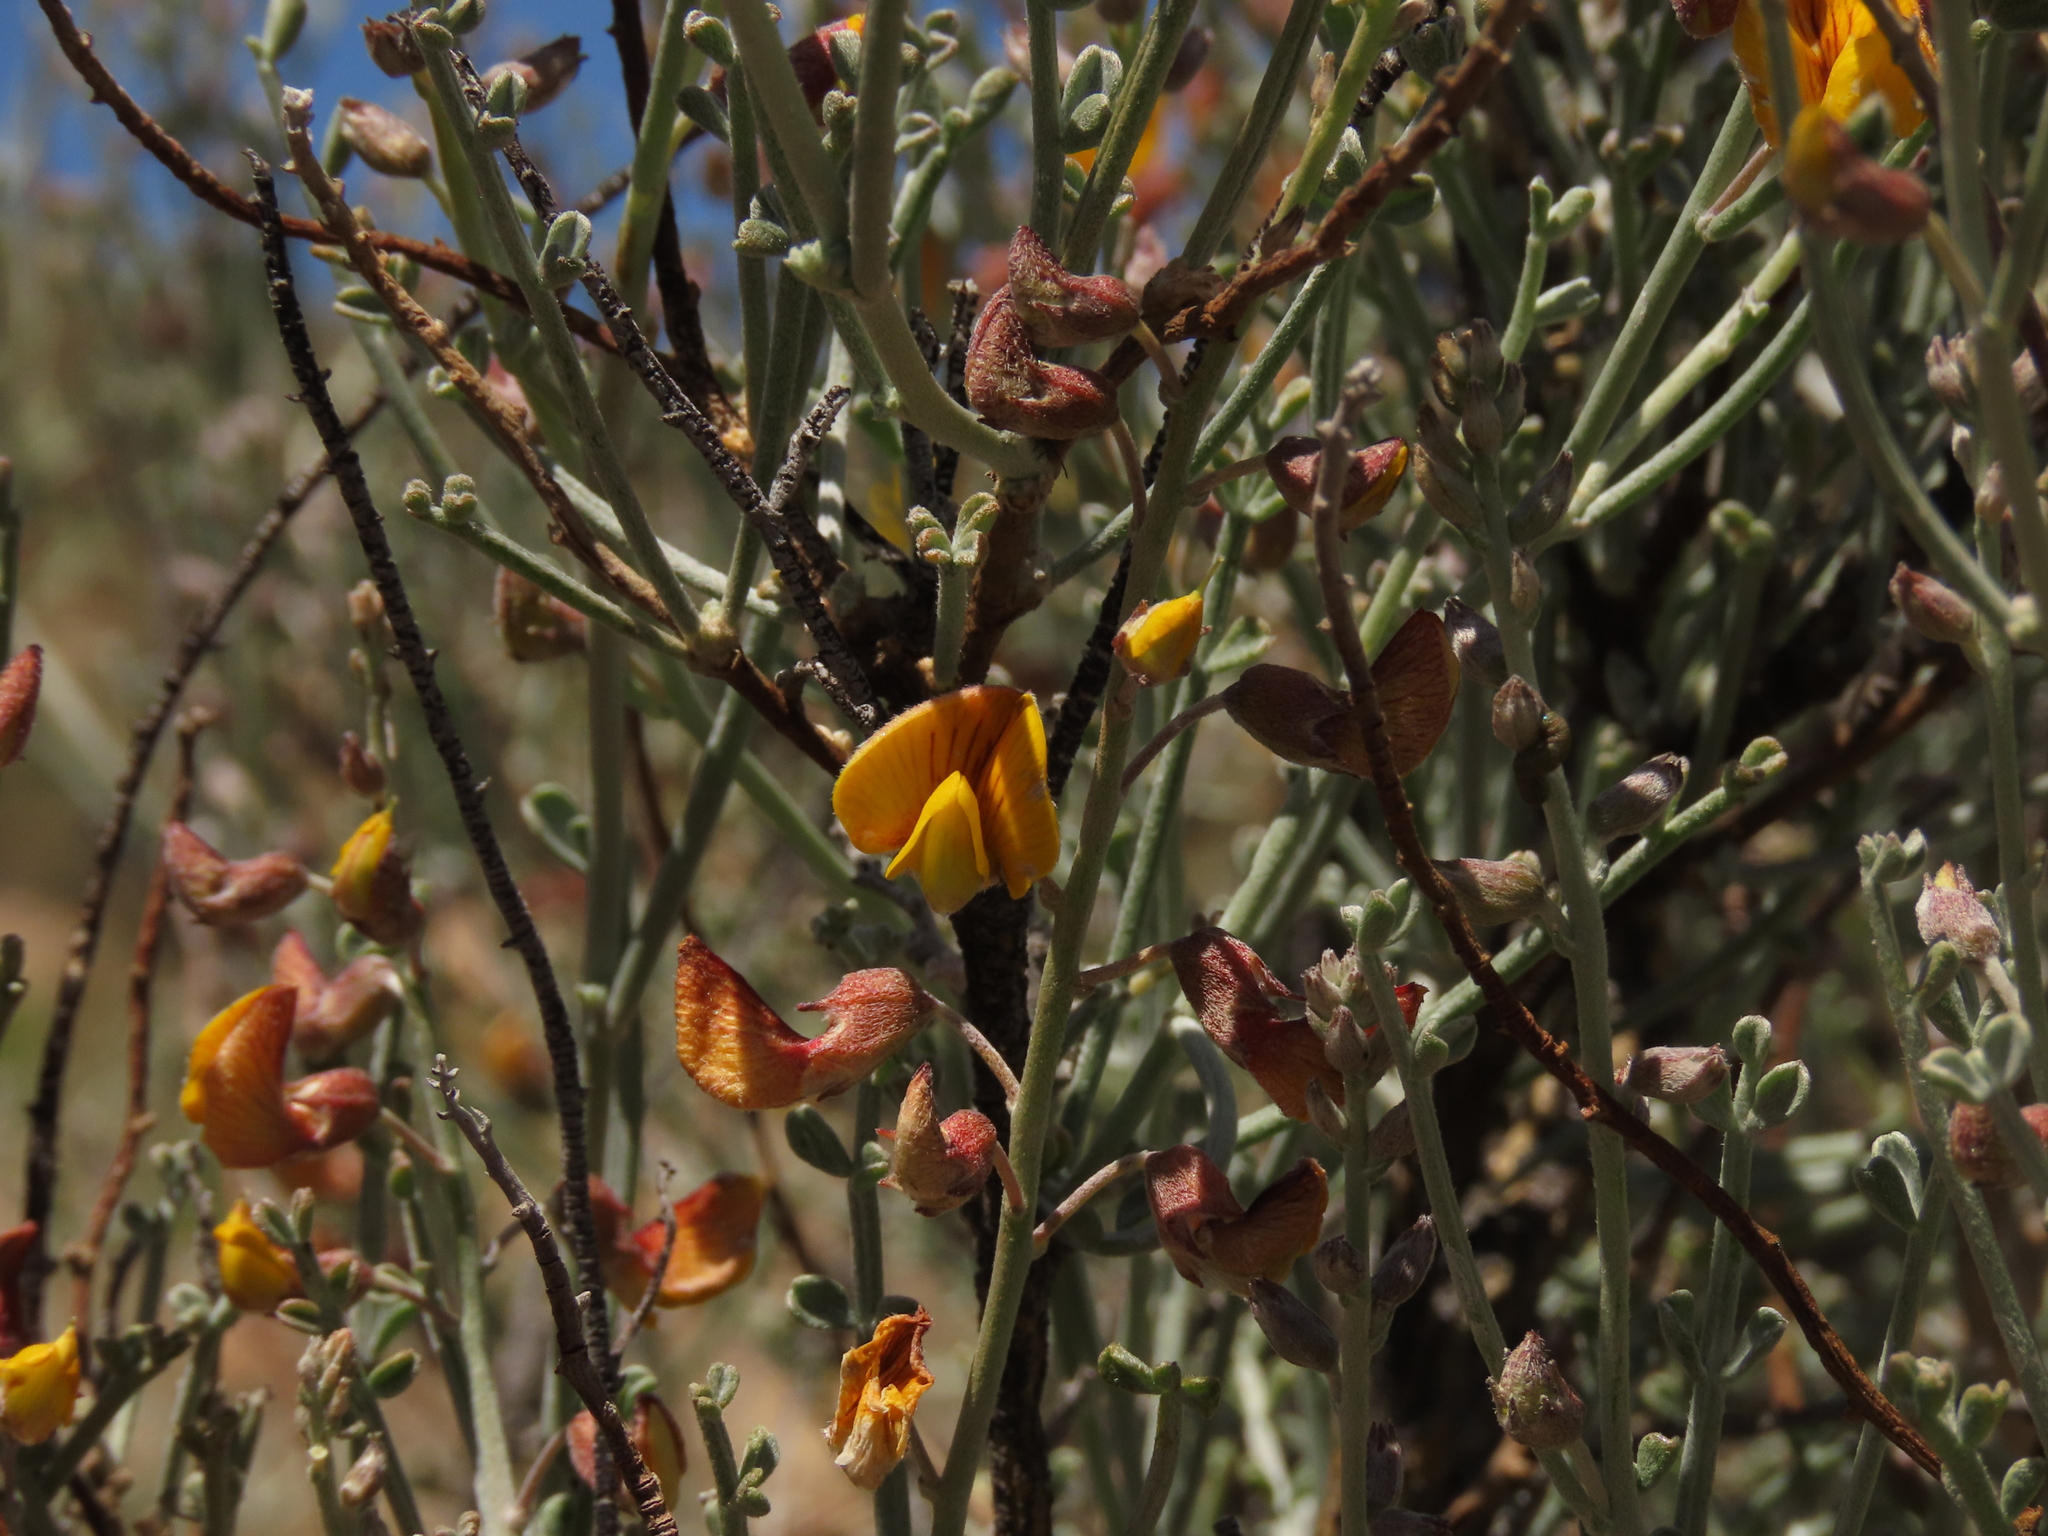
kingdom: Plantae
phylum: Tracheophyta
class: Magnoliopsida
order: Fabales
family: Fabaceae
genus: Adesmia
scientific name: Adesmia argentea
